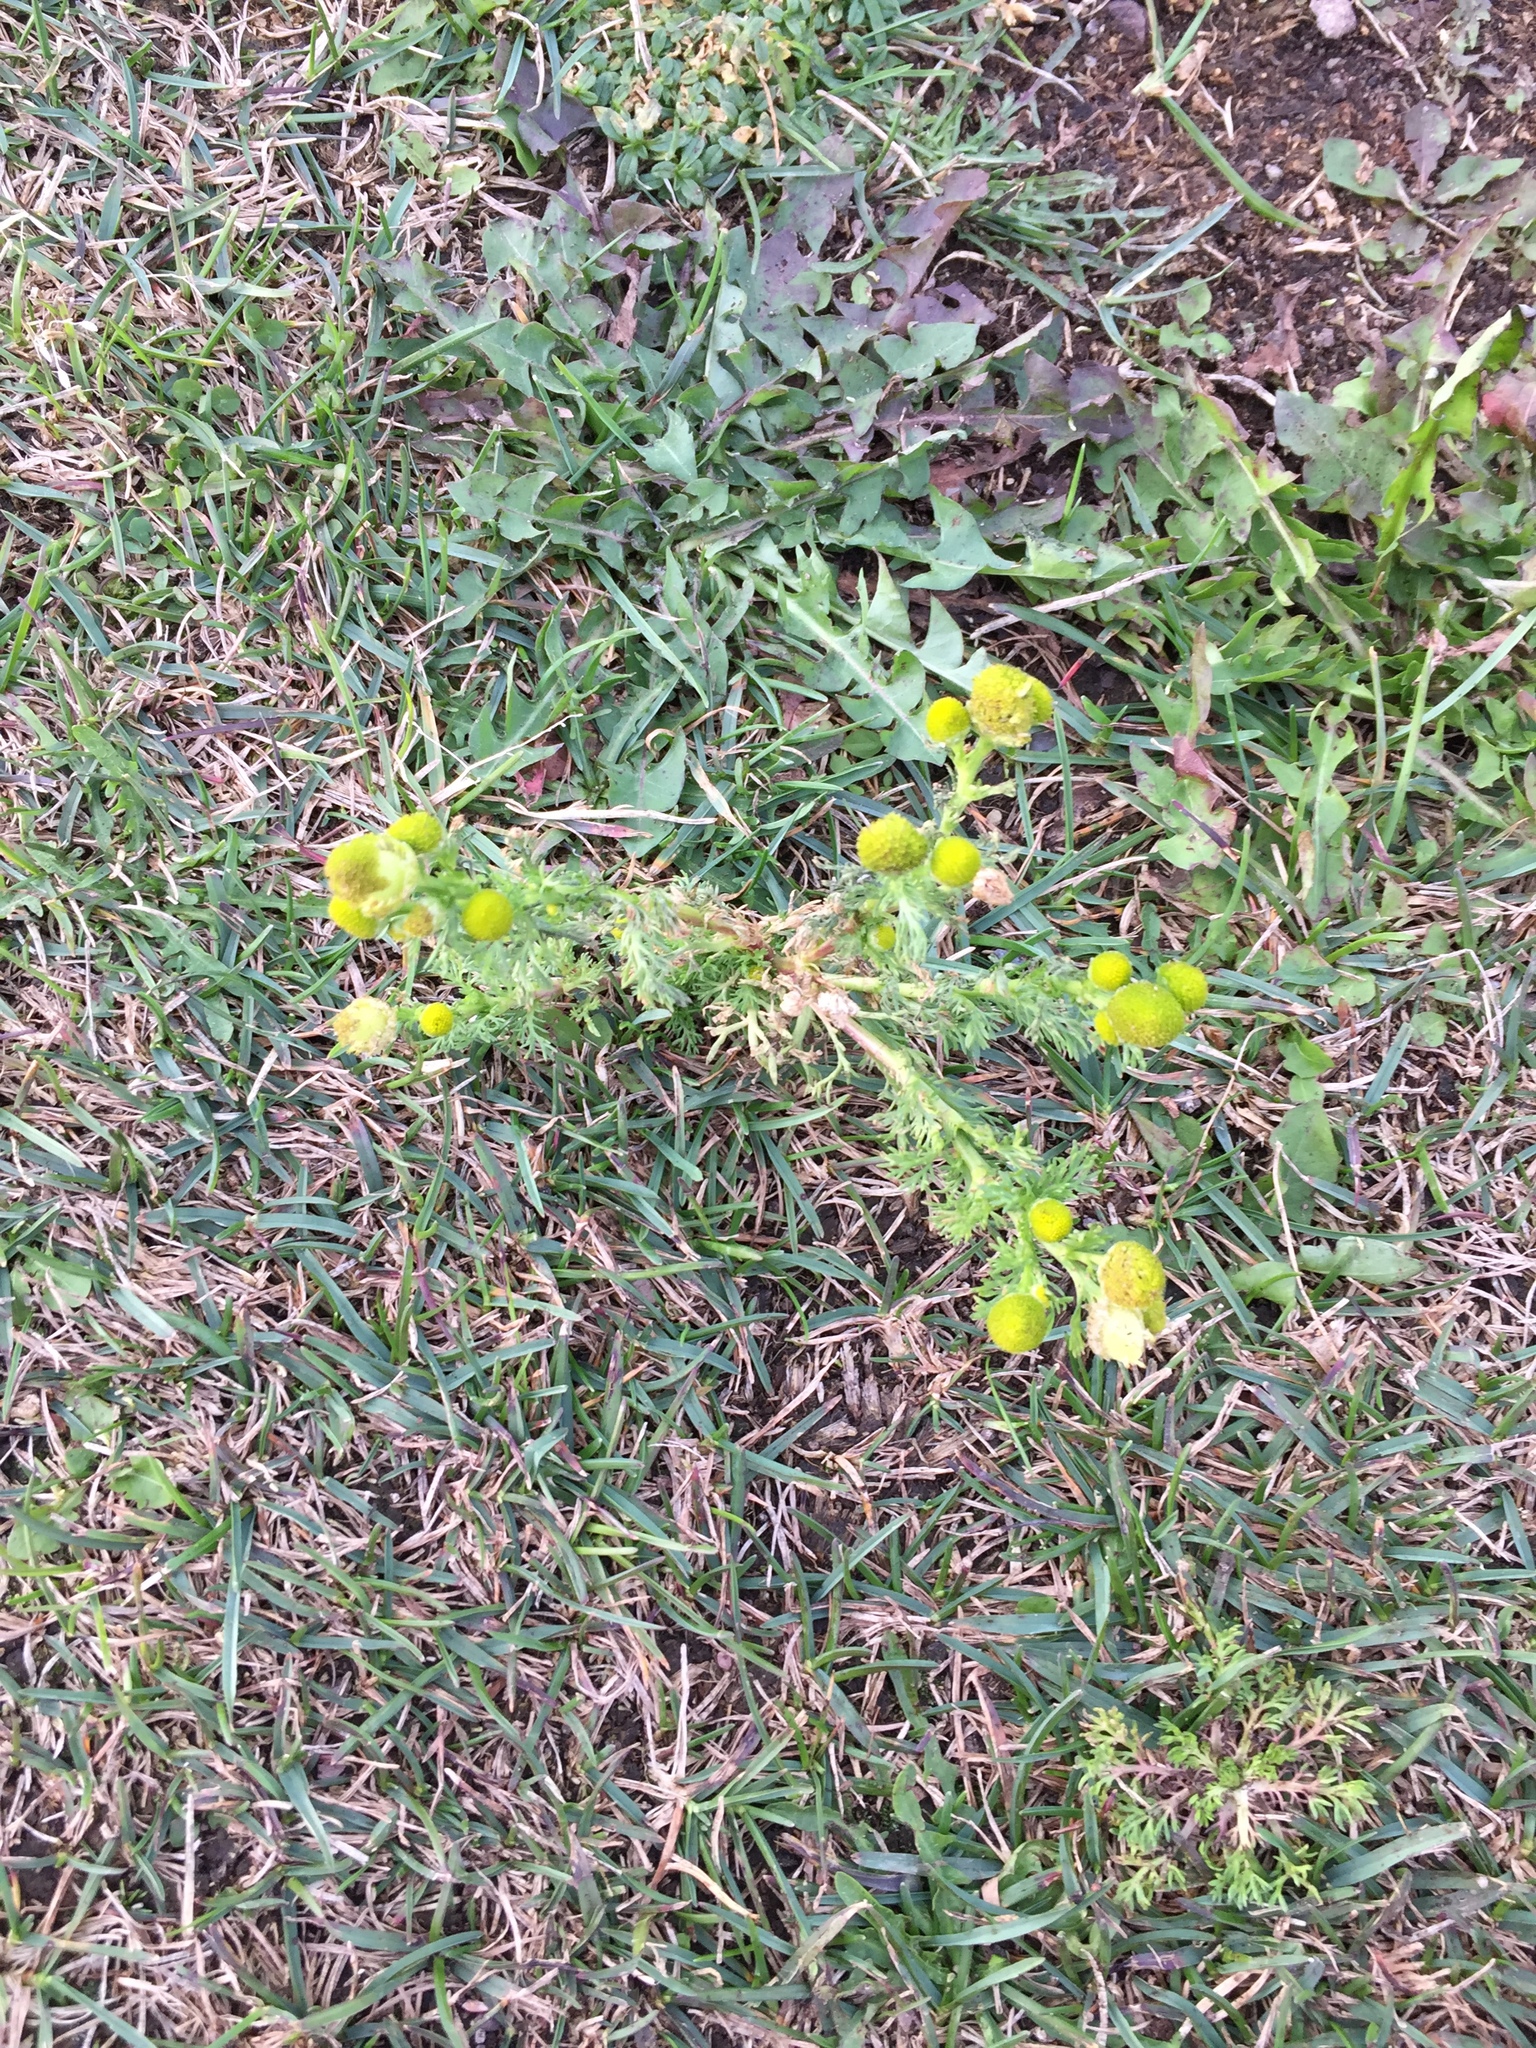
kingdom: Plantae
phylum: Tracheophyta
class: Magnoliopsida
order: Asterales
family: Asteraceae
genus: Matricaria
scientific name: Matricaria discoidea
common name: Disc mayweed
